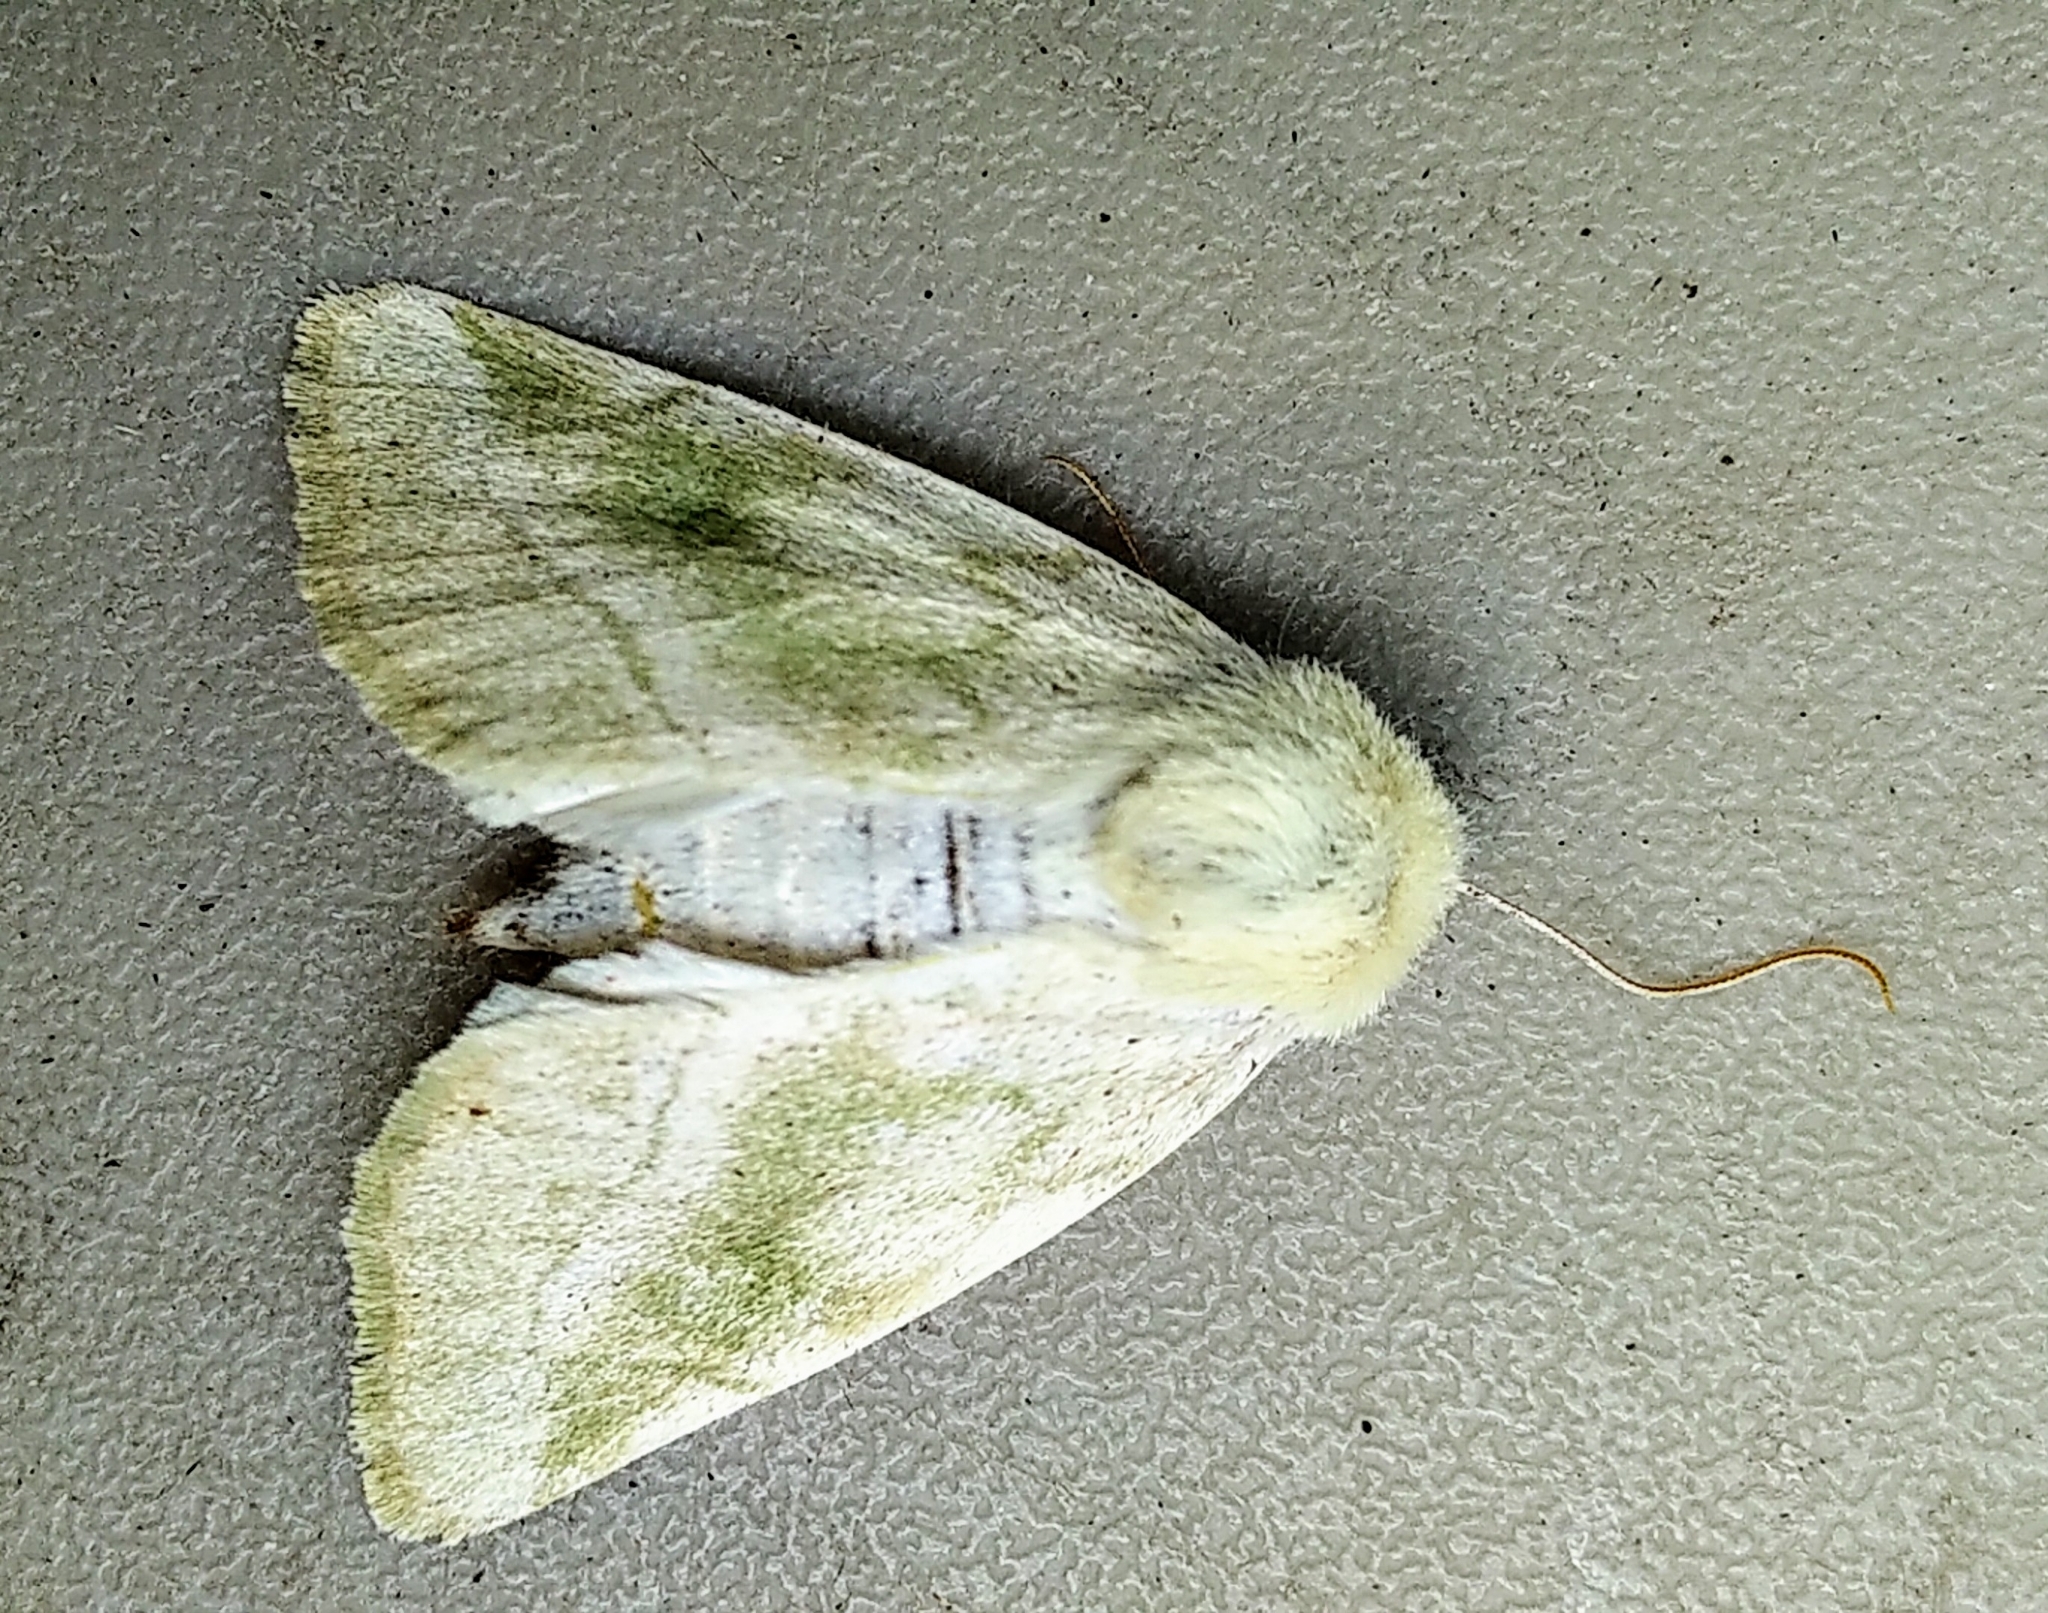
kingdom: Animalia
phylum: Arthropoda
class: Insecta
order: Lepidoptera
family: Noctuidae
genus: Zotheca
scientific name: Zotheca tranquilla
